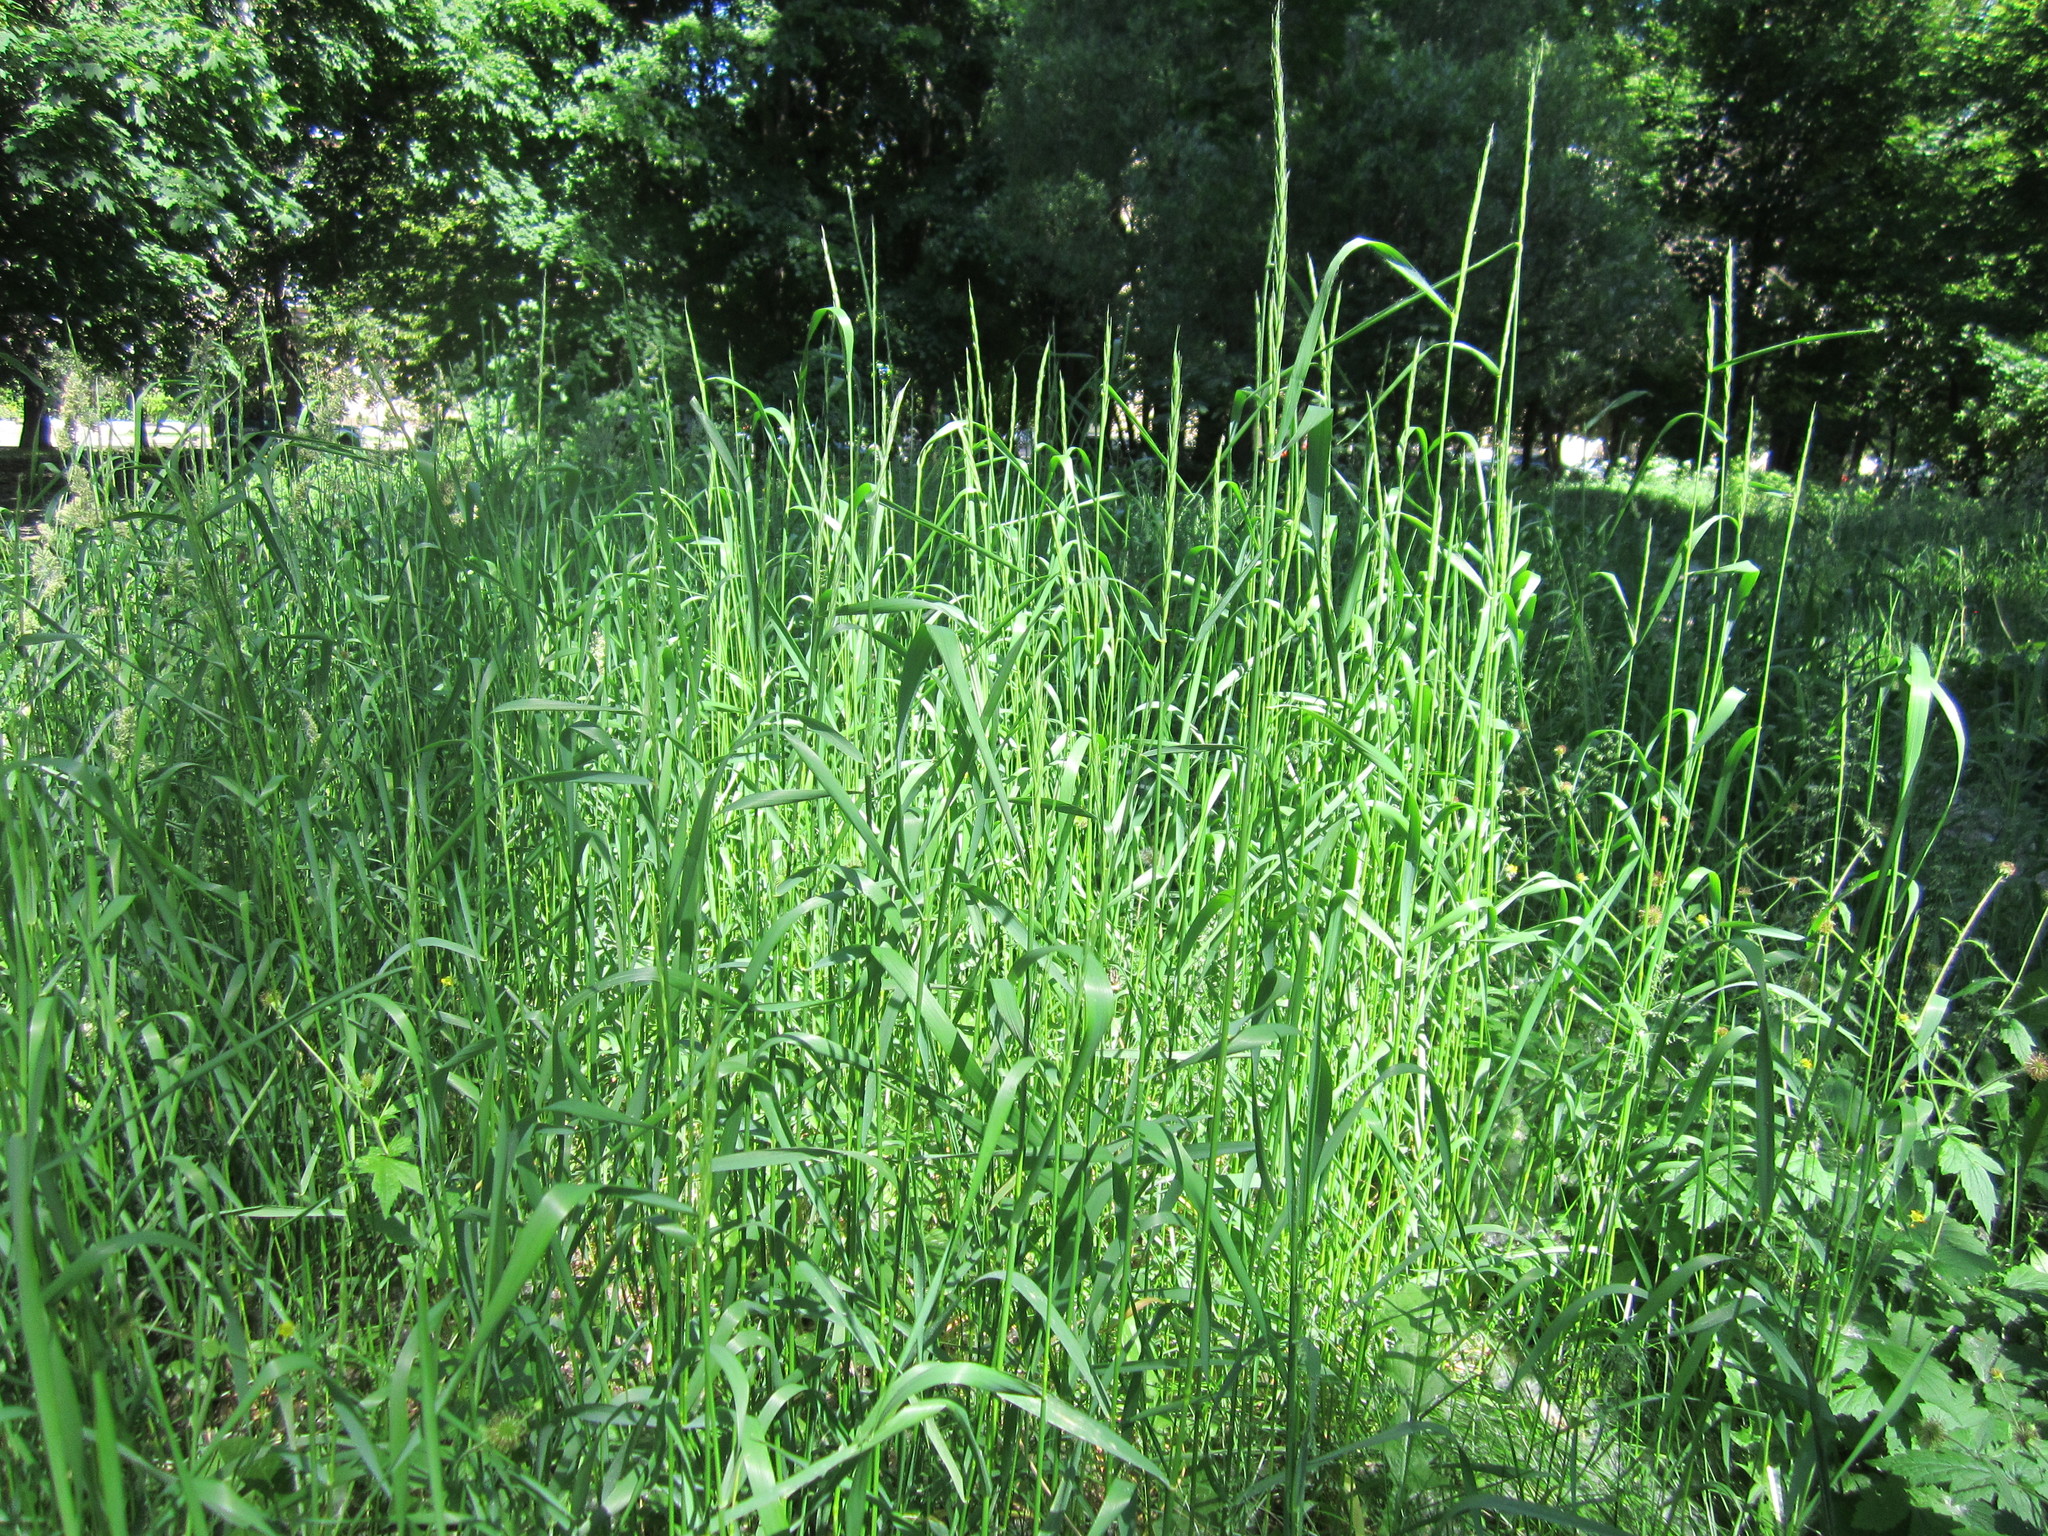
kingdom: Plantae
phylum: Tracheophyta
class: Liliopsida
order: Poales
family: Poaceae
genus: Elymus
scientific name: Elymus repens
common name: Quackgrass
